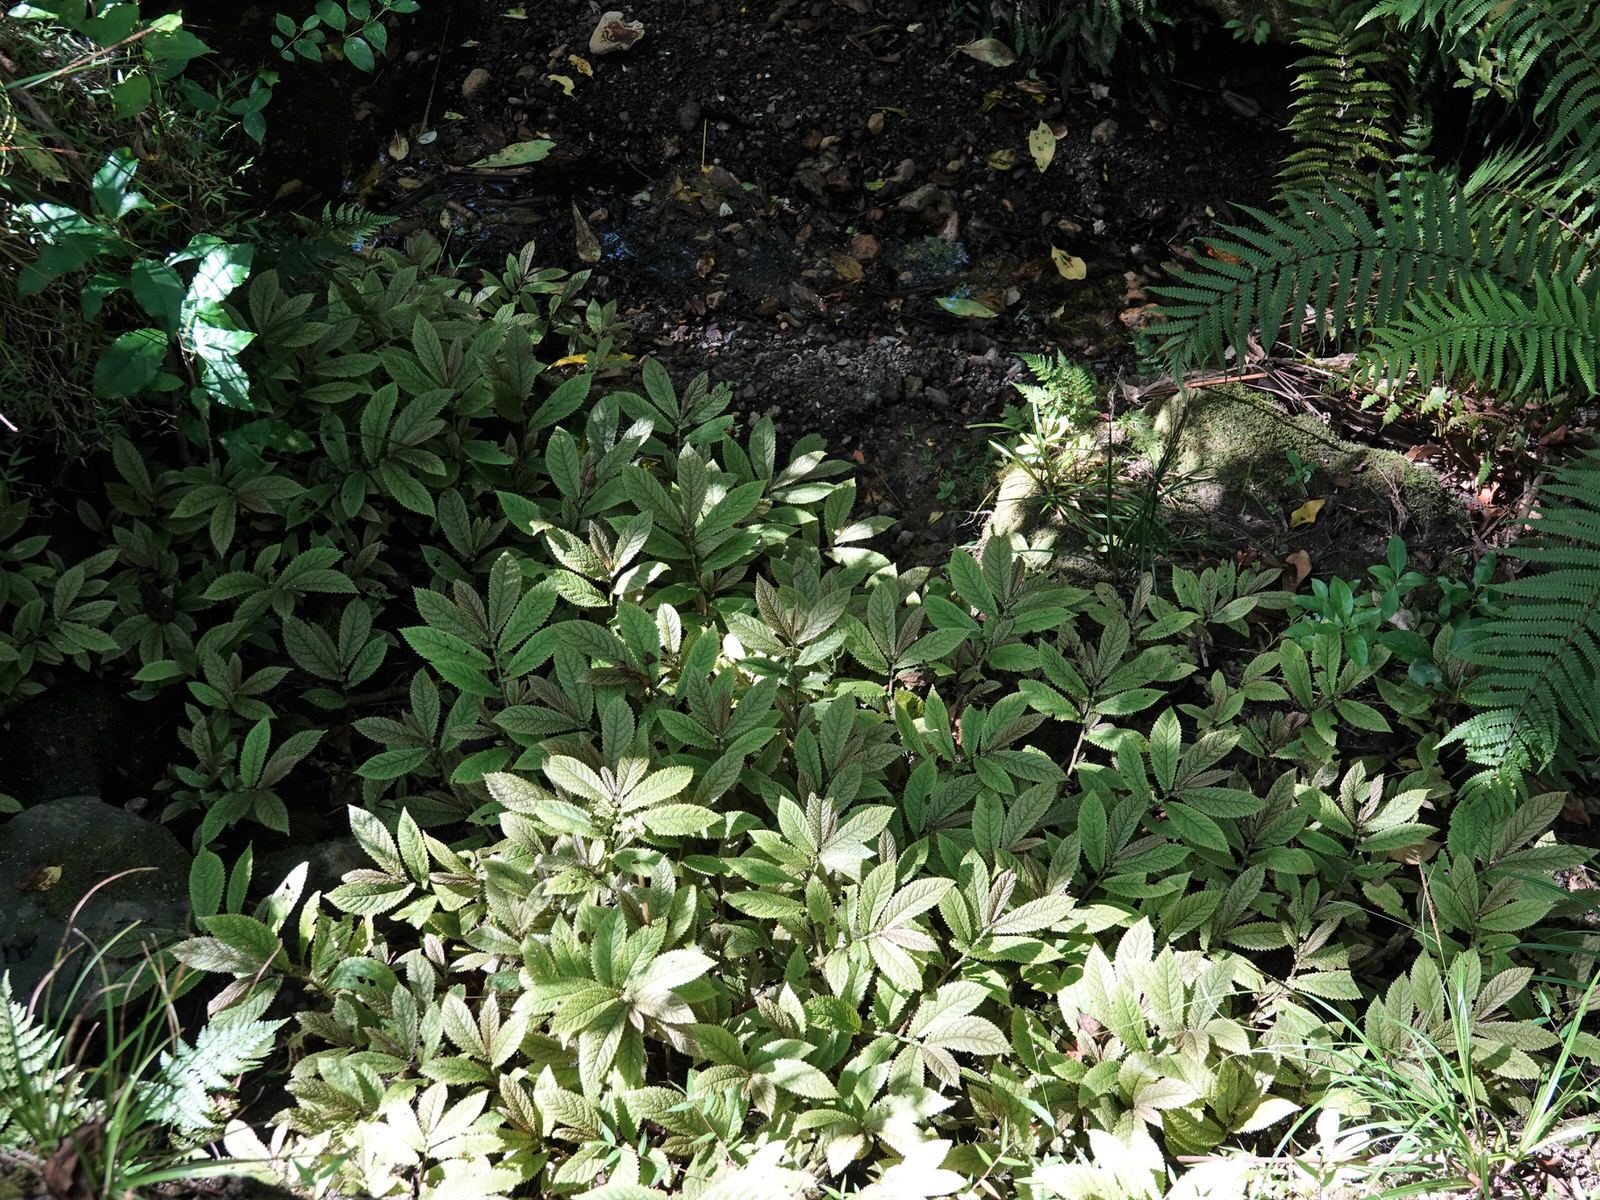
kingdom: Plantae
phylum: Tracheophyta
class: Magnoliopsida
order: Rosales
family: Urticaceae
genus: Elatostema
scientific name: Elatostema rugosum
